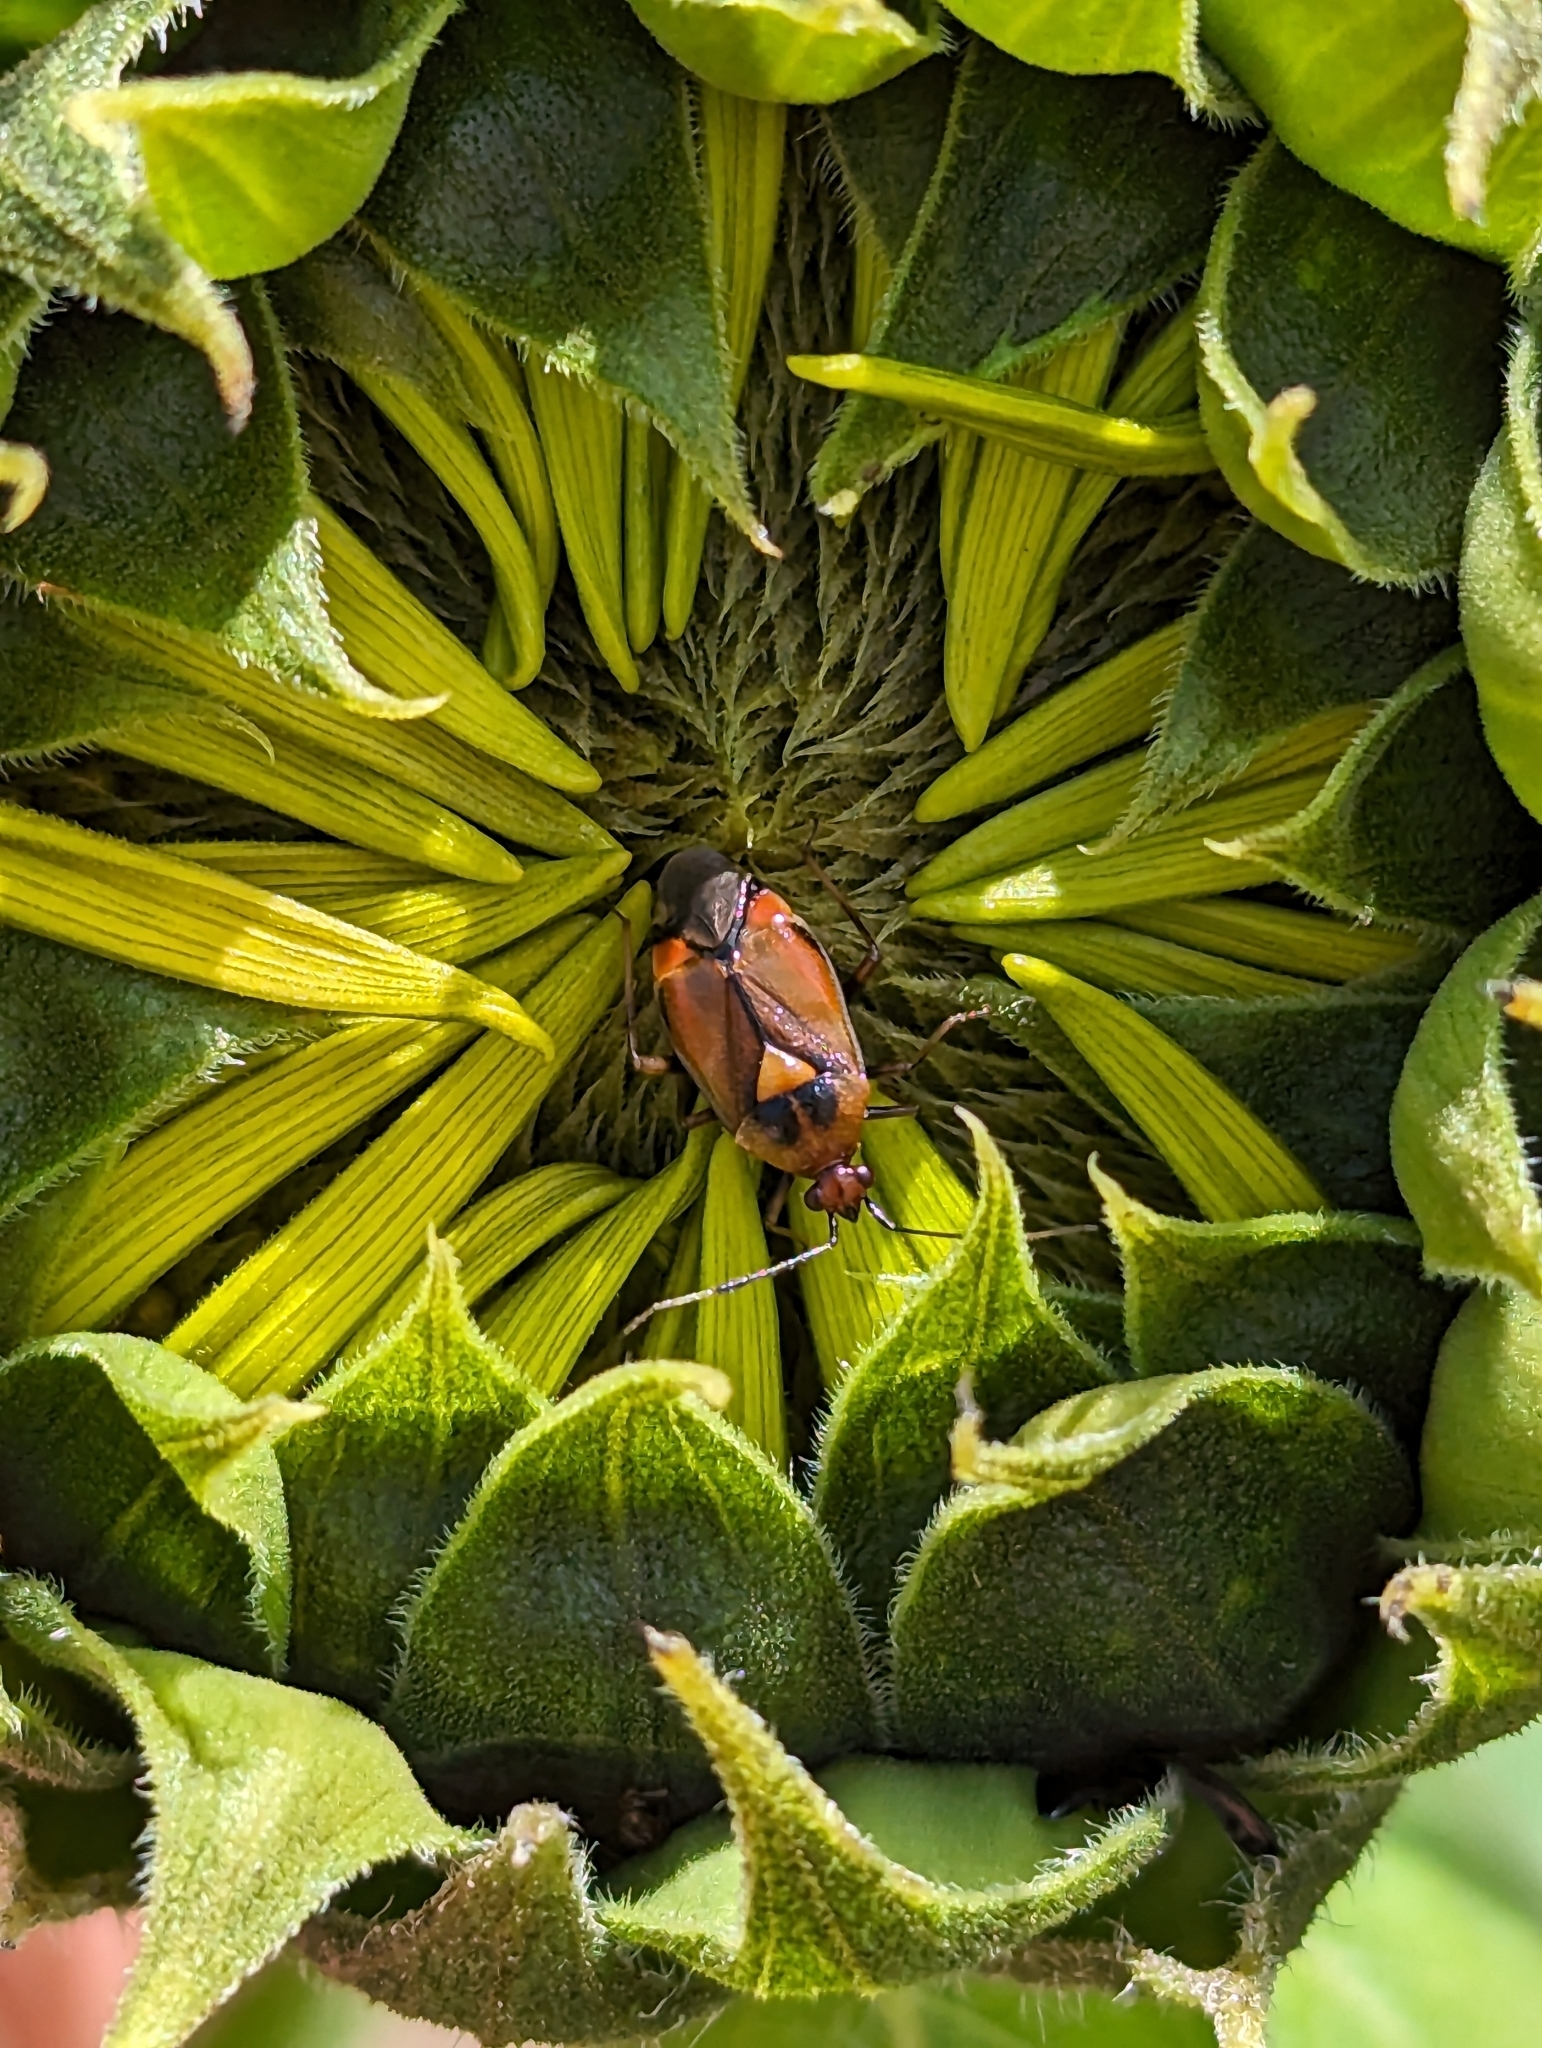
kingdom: Animalia
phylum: Arthropoda
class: Insecta
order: Hemiptera
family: Miridae
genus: Deraeocoris
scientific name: Deraeocoris ruber
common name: Plant bug
